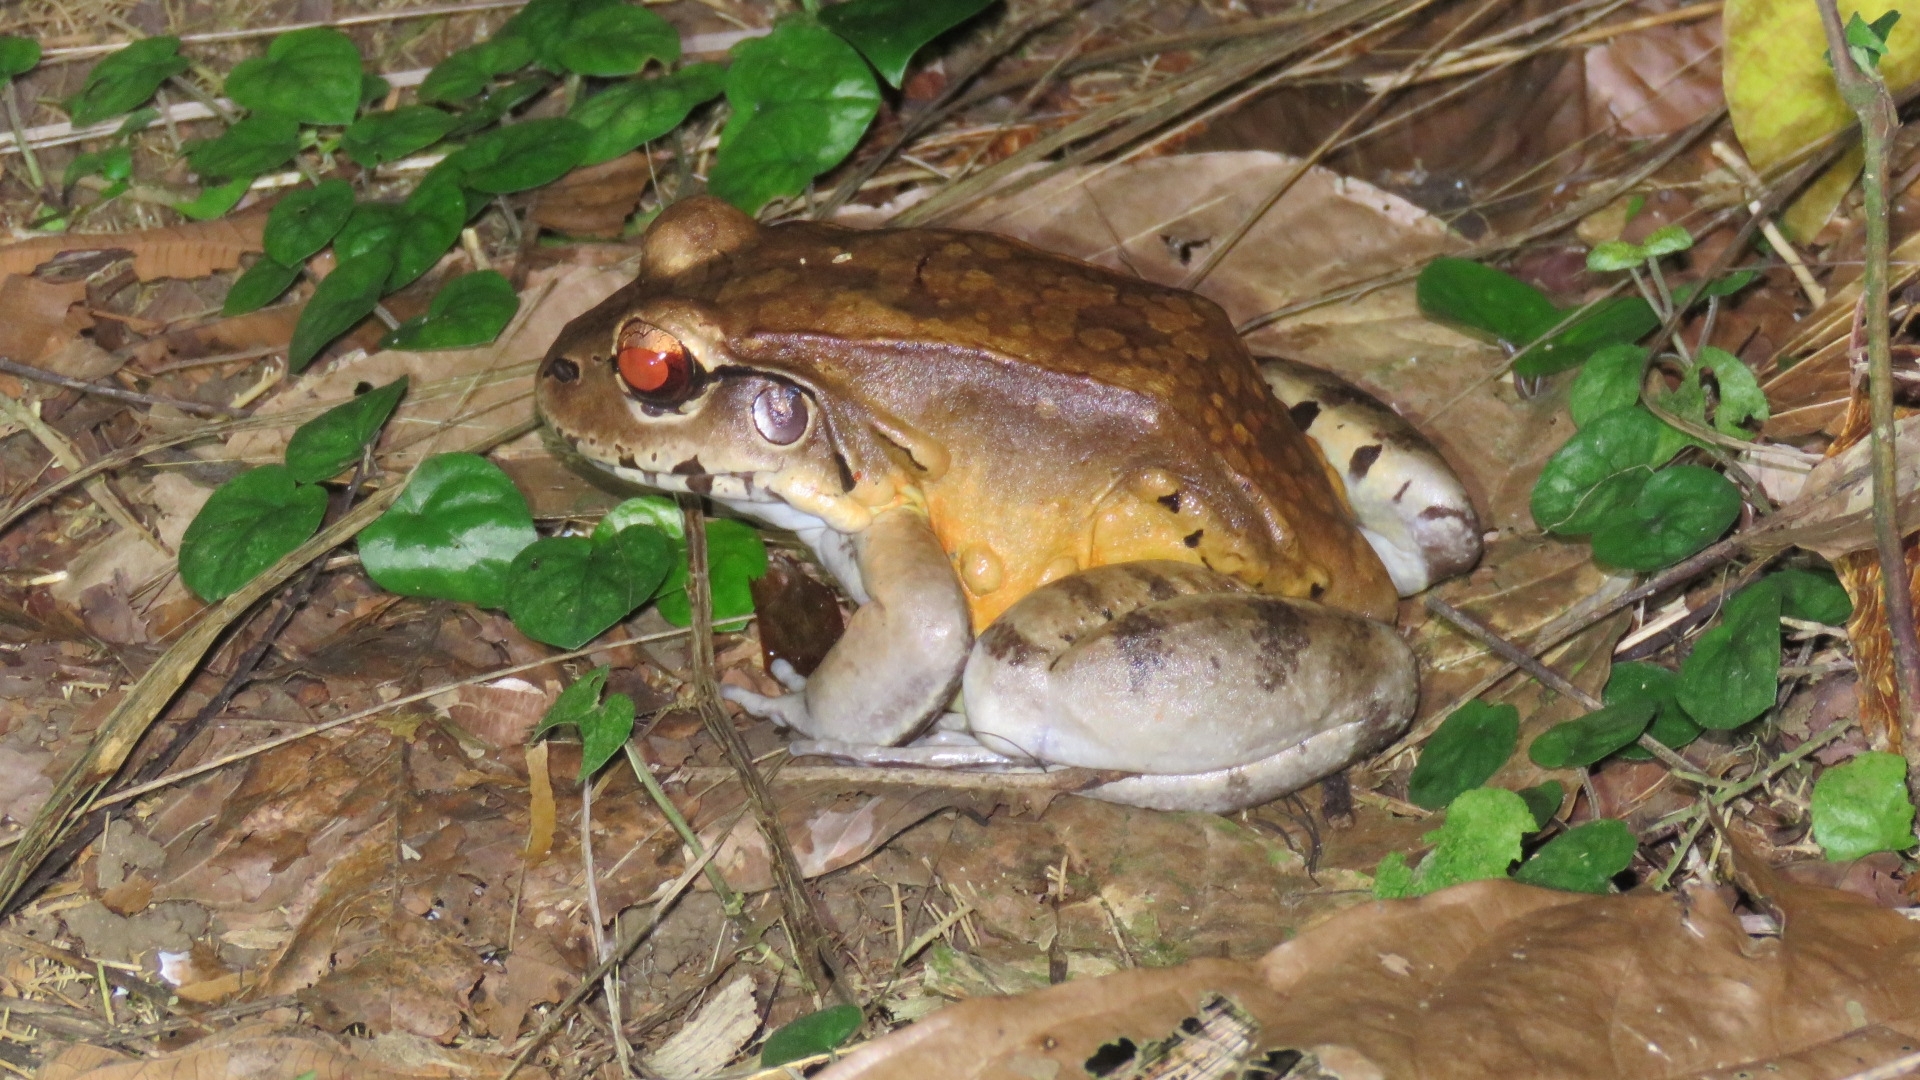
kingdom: Animalia
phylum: Chordata
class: Amphibia
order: Anura
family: Leptodactylidae
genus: Leptodactylus
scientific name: Leptodactylus savagei
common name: Savage's thin-toed frog
